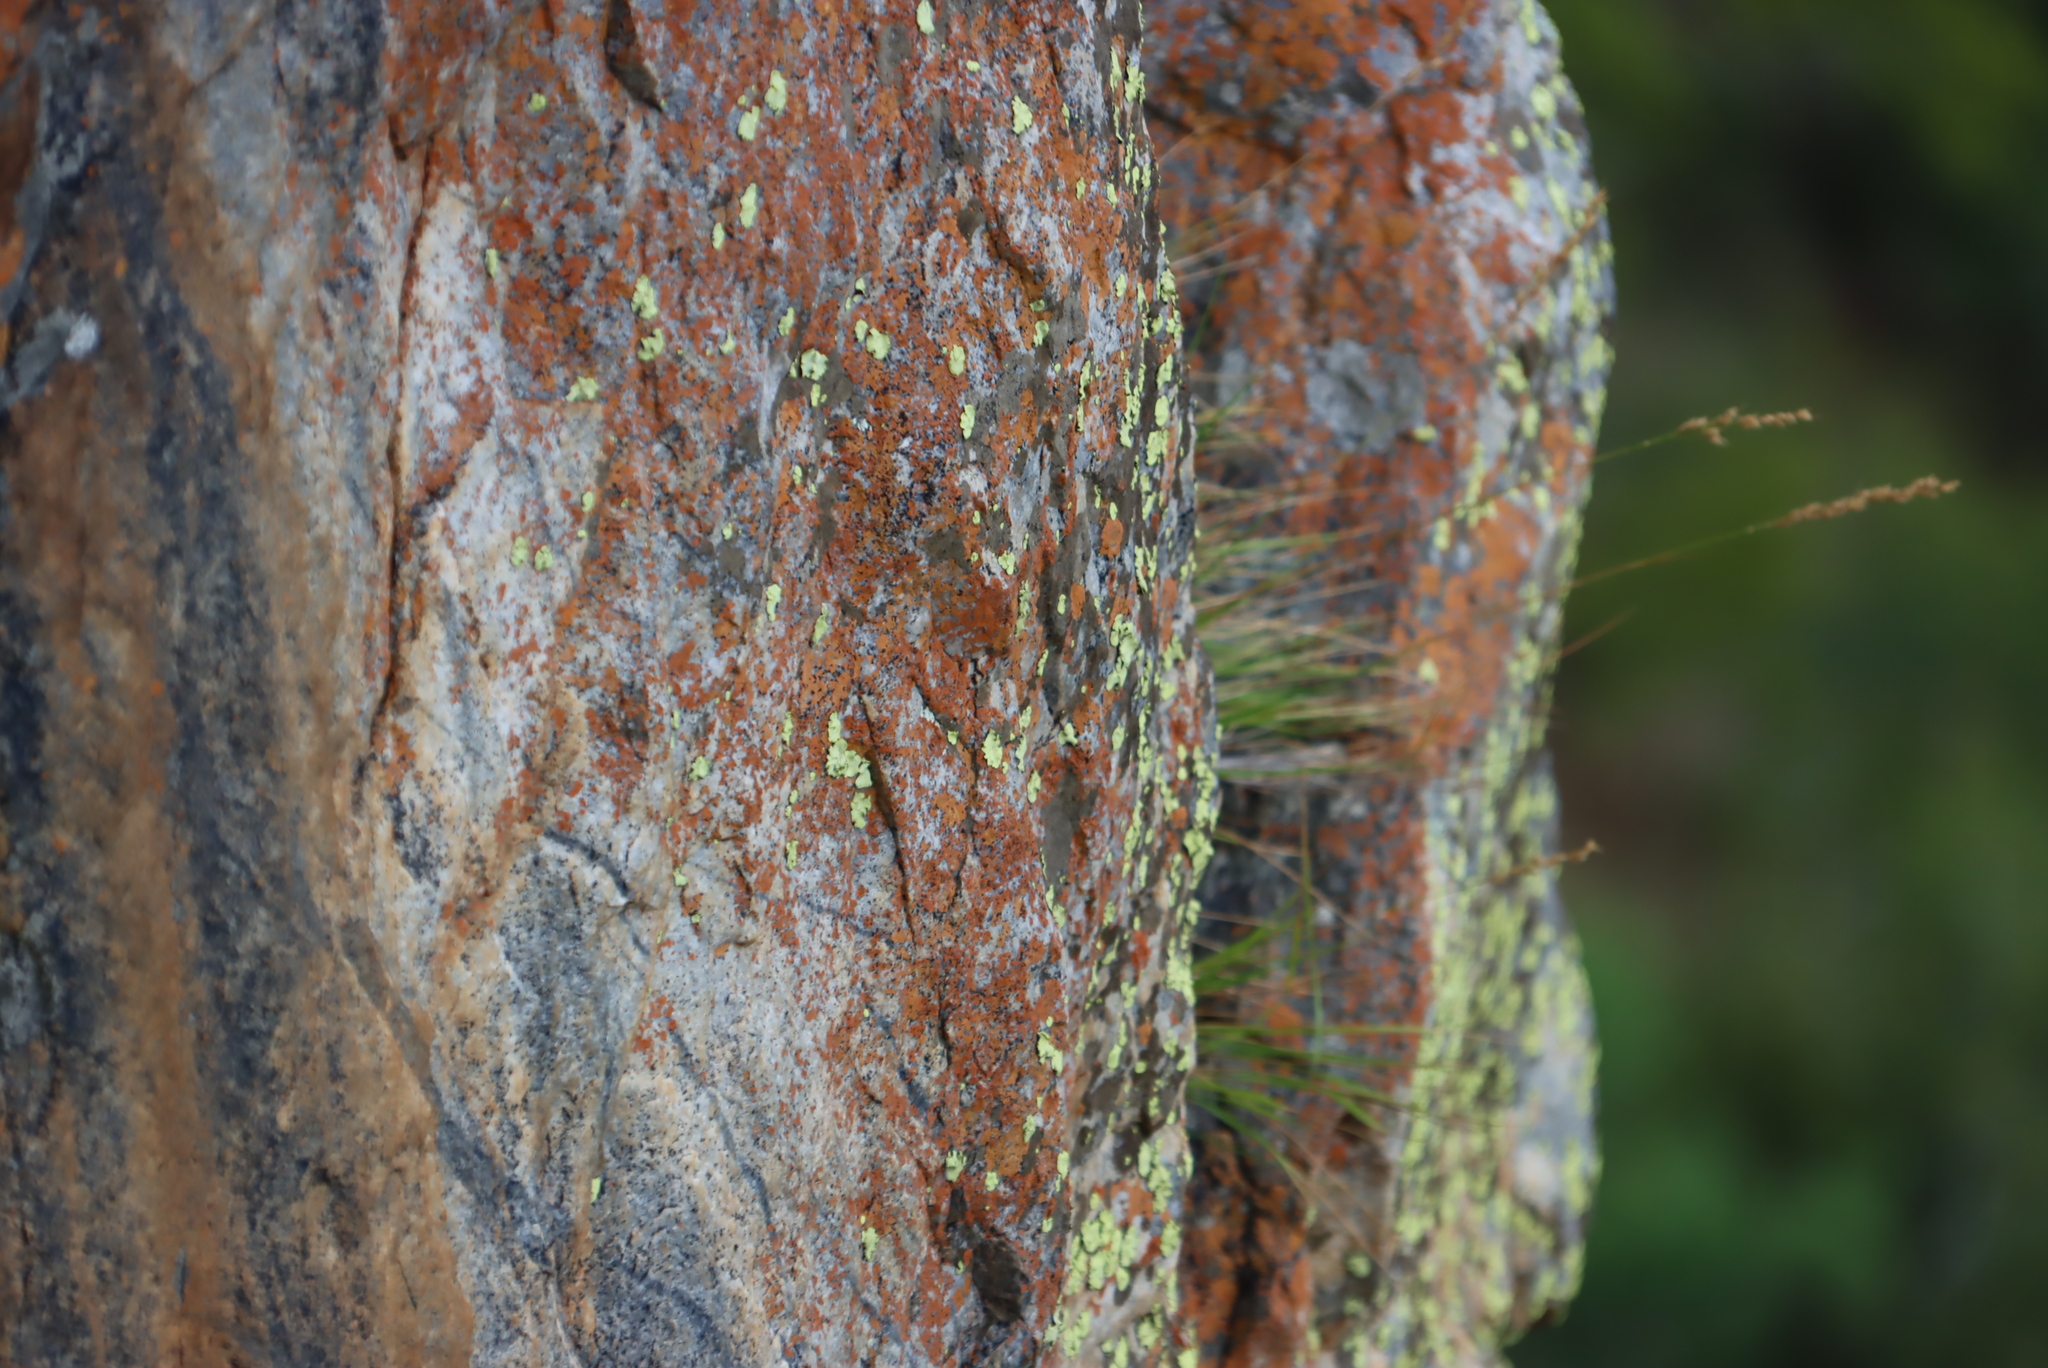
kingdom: Fungi
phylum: Ascomycota
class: Lecanoromycetes
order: Caliciales
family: Caliciaceae
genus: Dermatiscum
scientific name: Dermatiscum thunbergii
